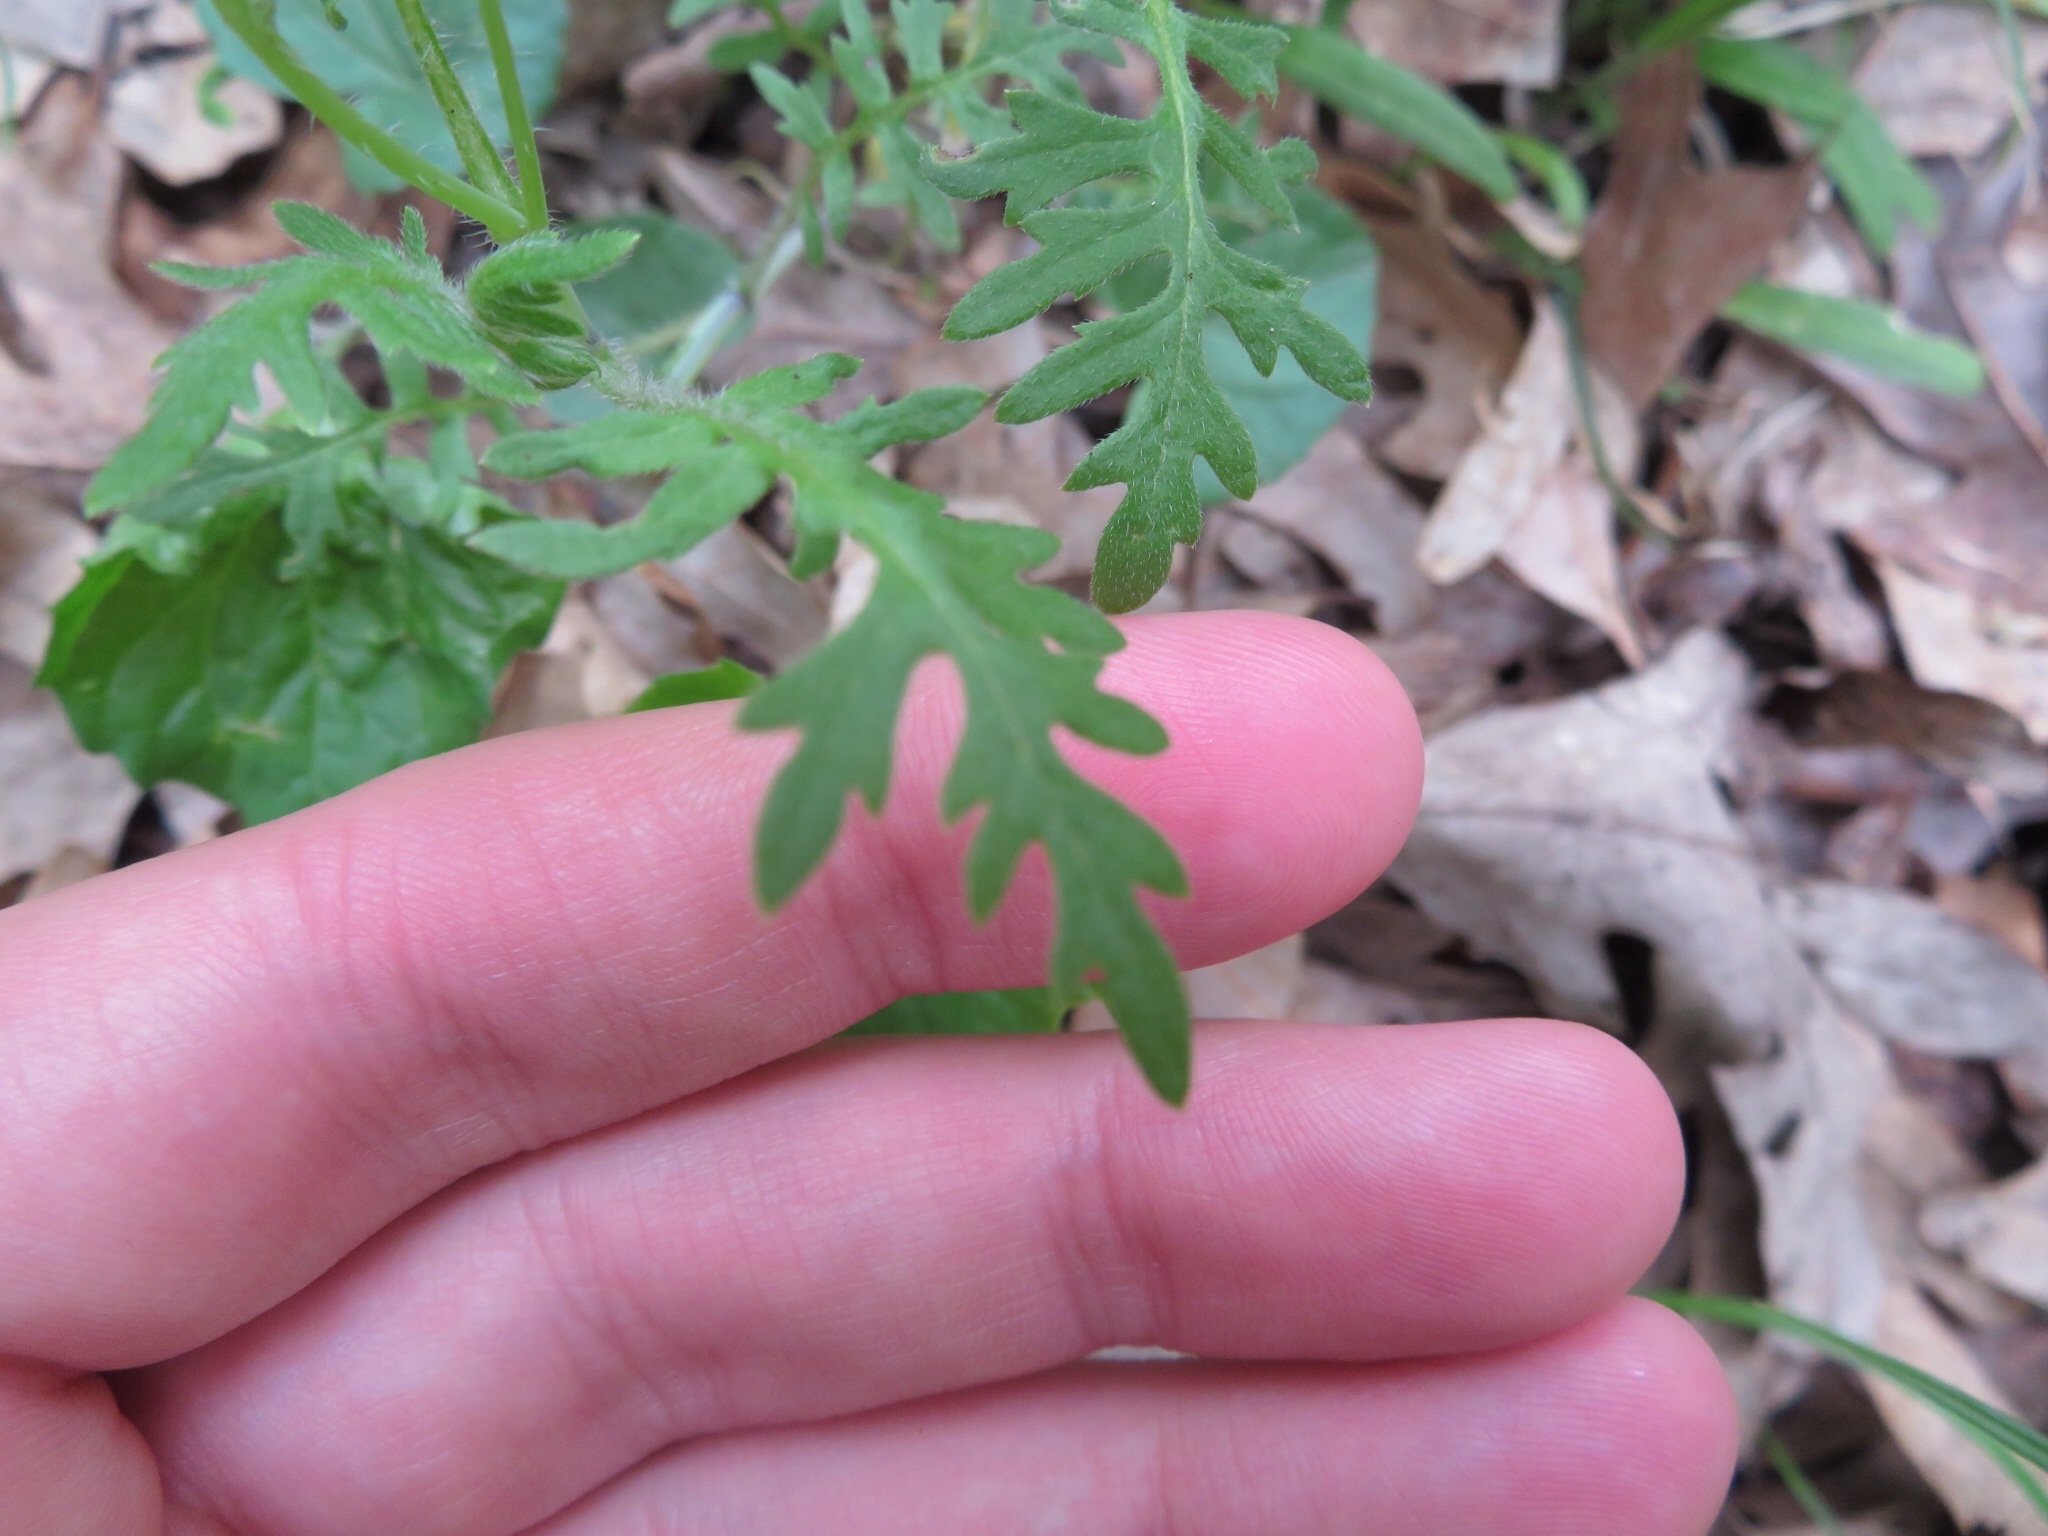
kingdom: Plantae
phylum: Tracheophyta
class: Magnoliopsida
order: Boraginales
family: Hydrophyllaceae
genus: Ellisia
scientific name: Ellisia nyctelea
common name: Aunt lucy
